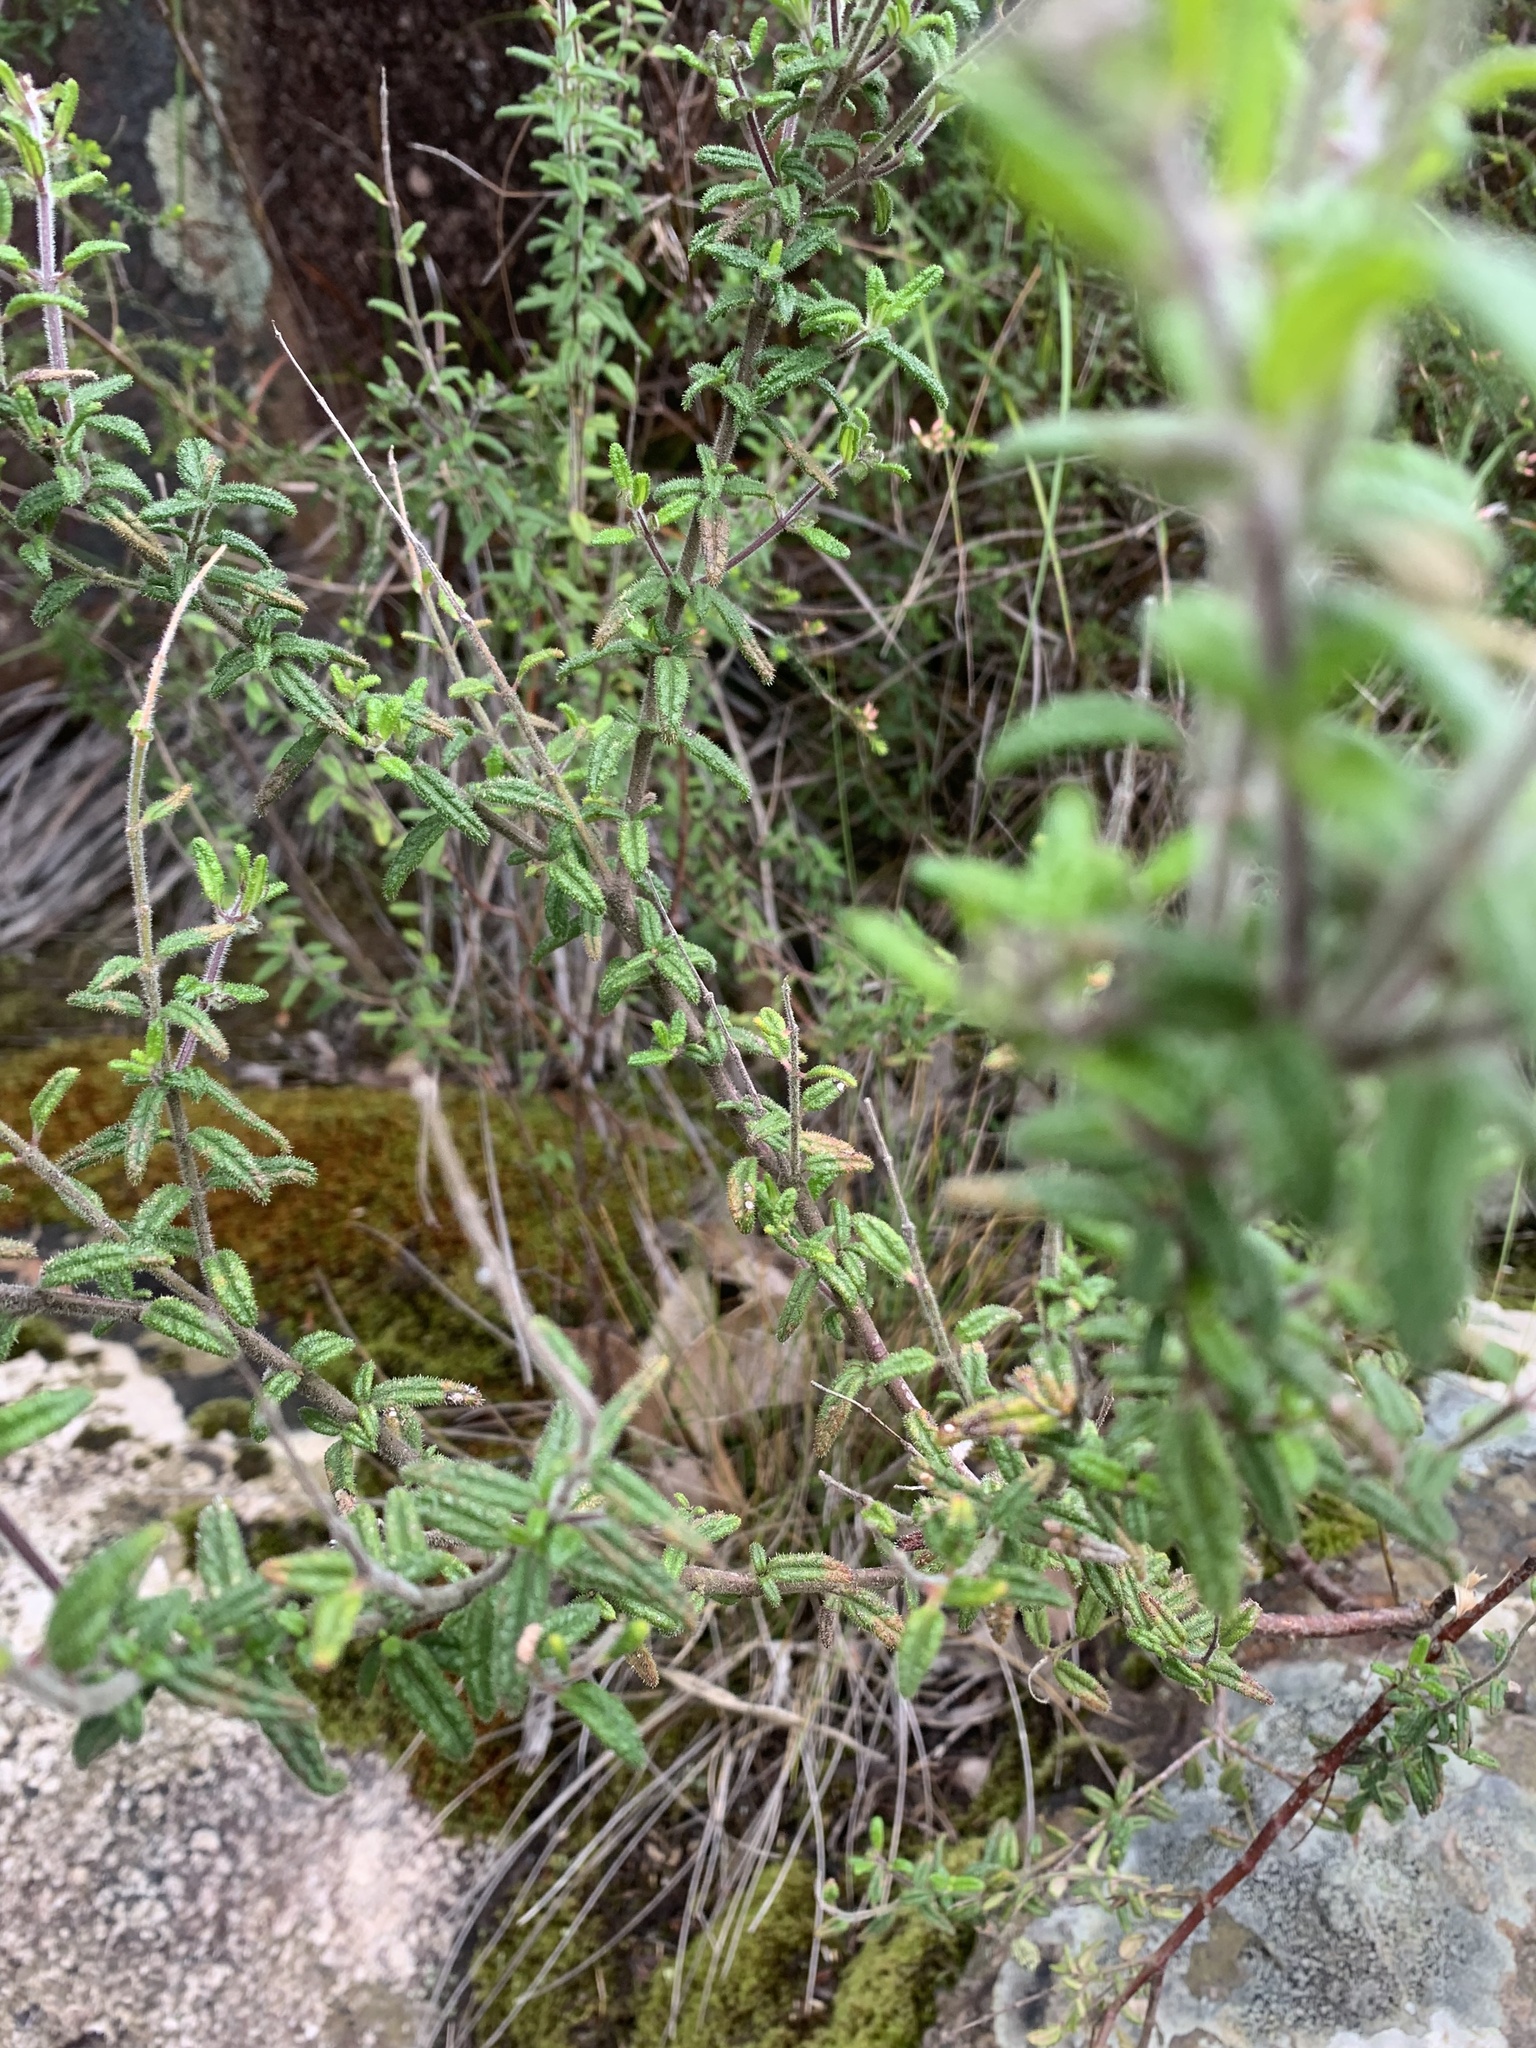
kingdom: Plantae
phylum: Tracheophyta
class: Magnoliopsida
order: Lamiales
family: Lamiaceae
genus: Prostanthera
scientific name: Prostanthera hirtula
